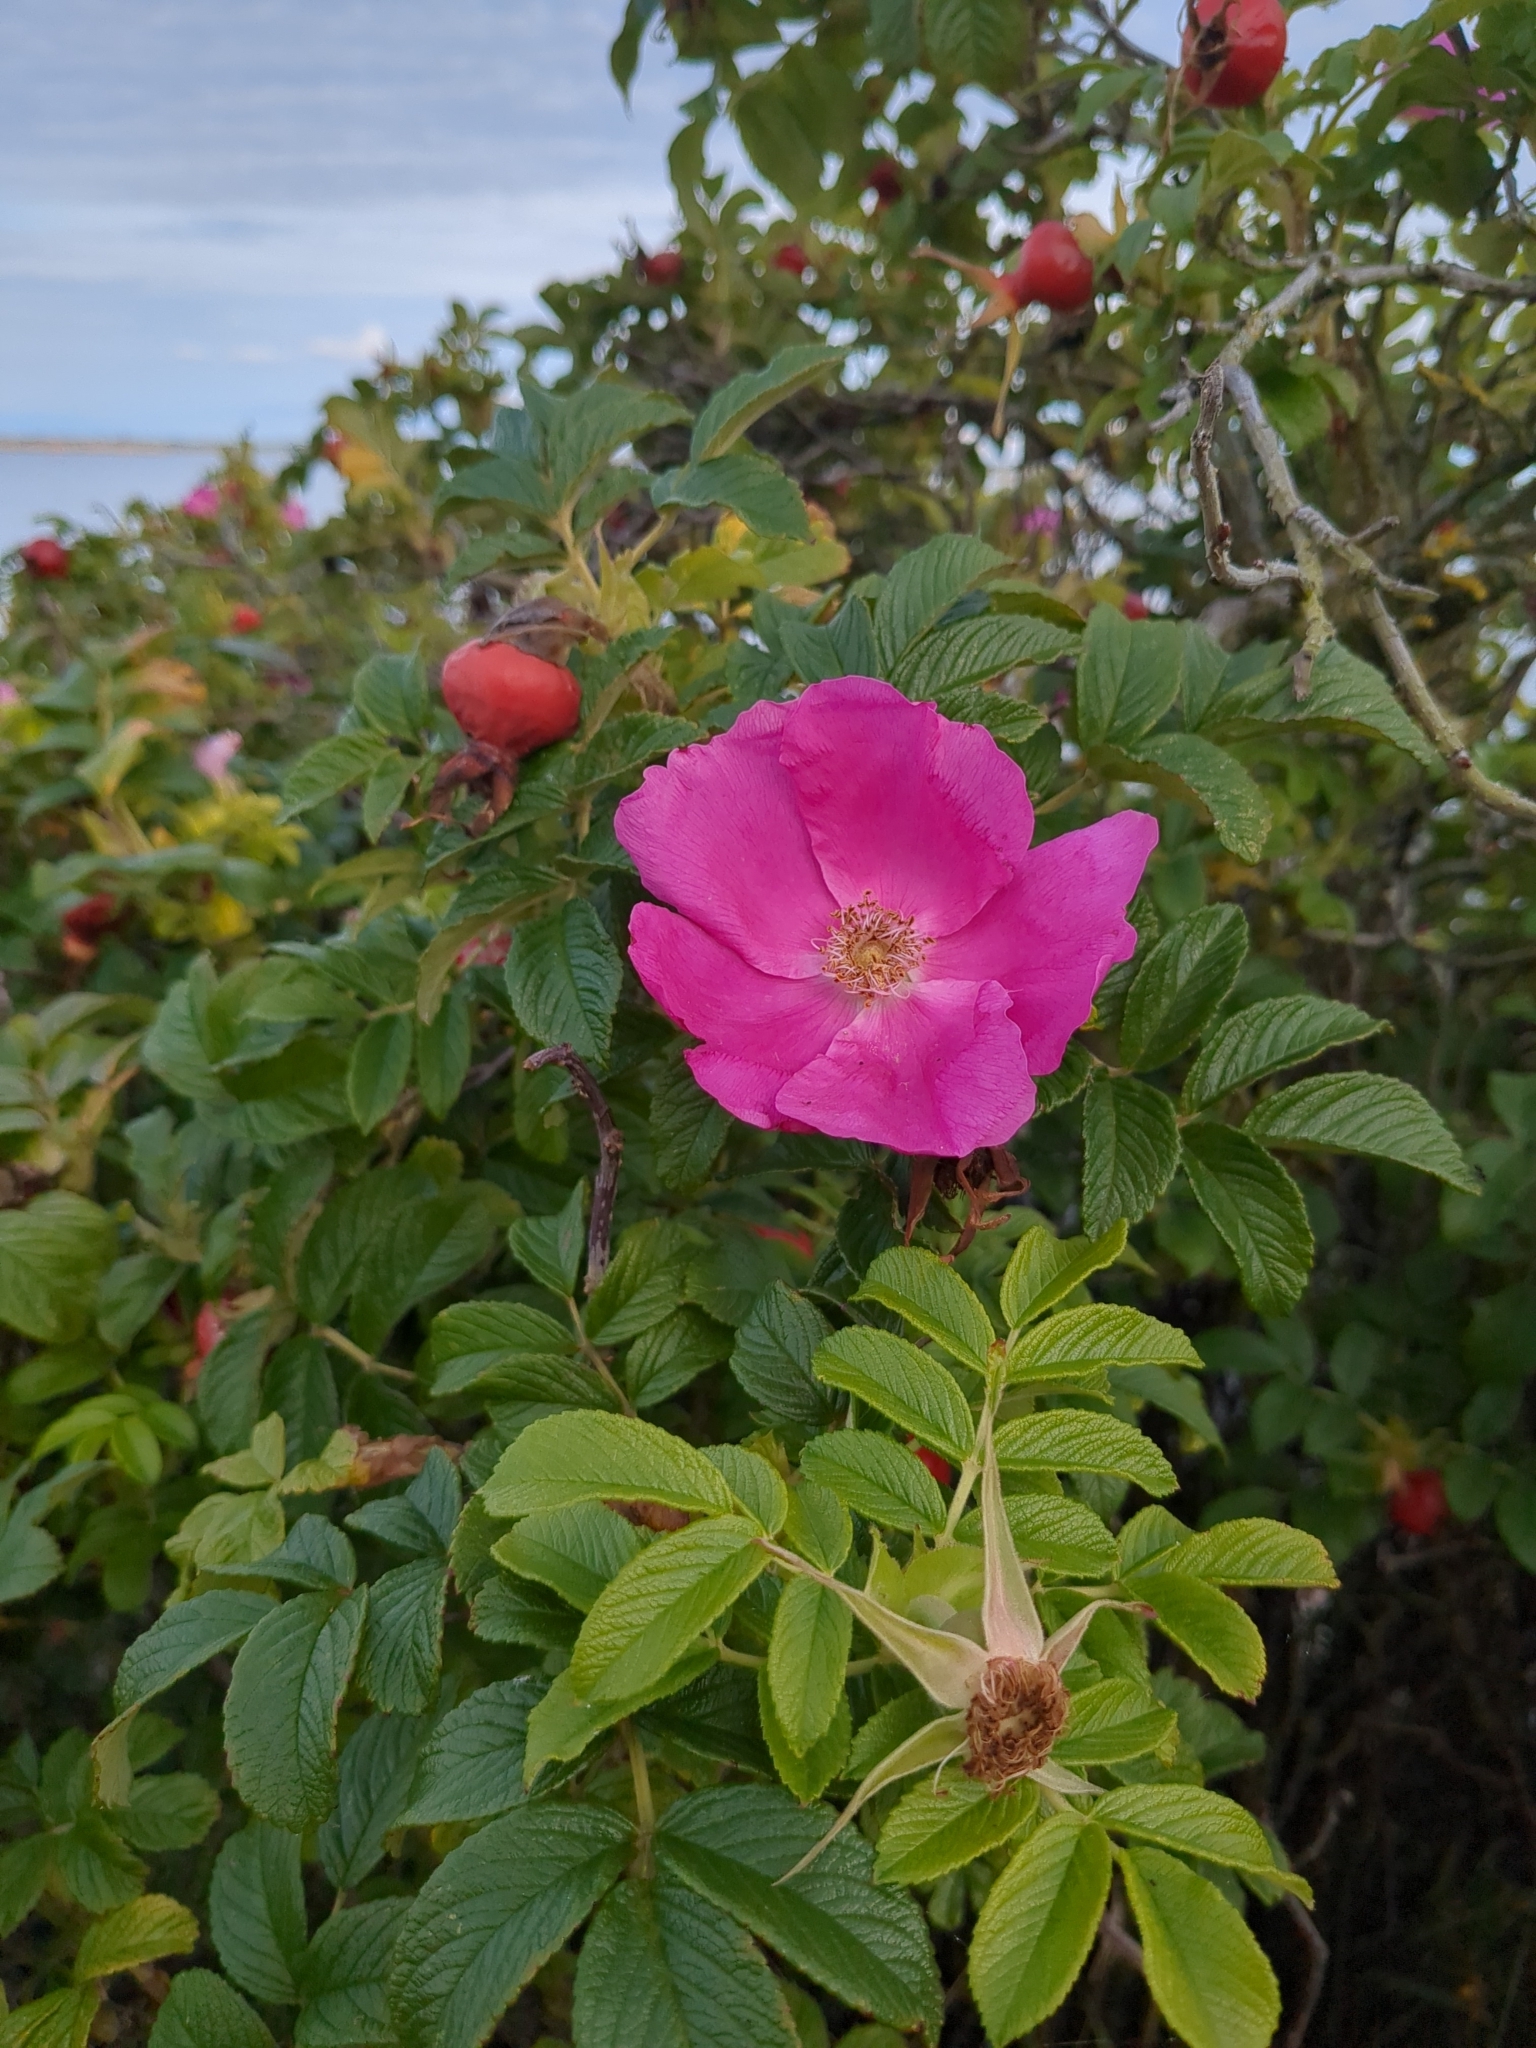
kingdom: Plantae
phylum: Tracheophyta
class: Magnoliopsida
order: Rosales
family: Rosaceae
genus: Rosa
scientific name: Rosa rugosa
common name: Japanese rose
